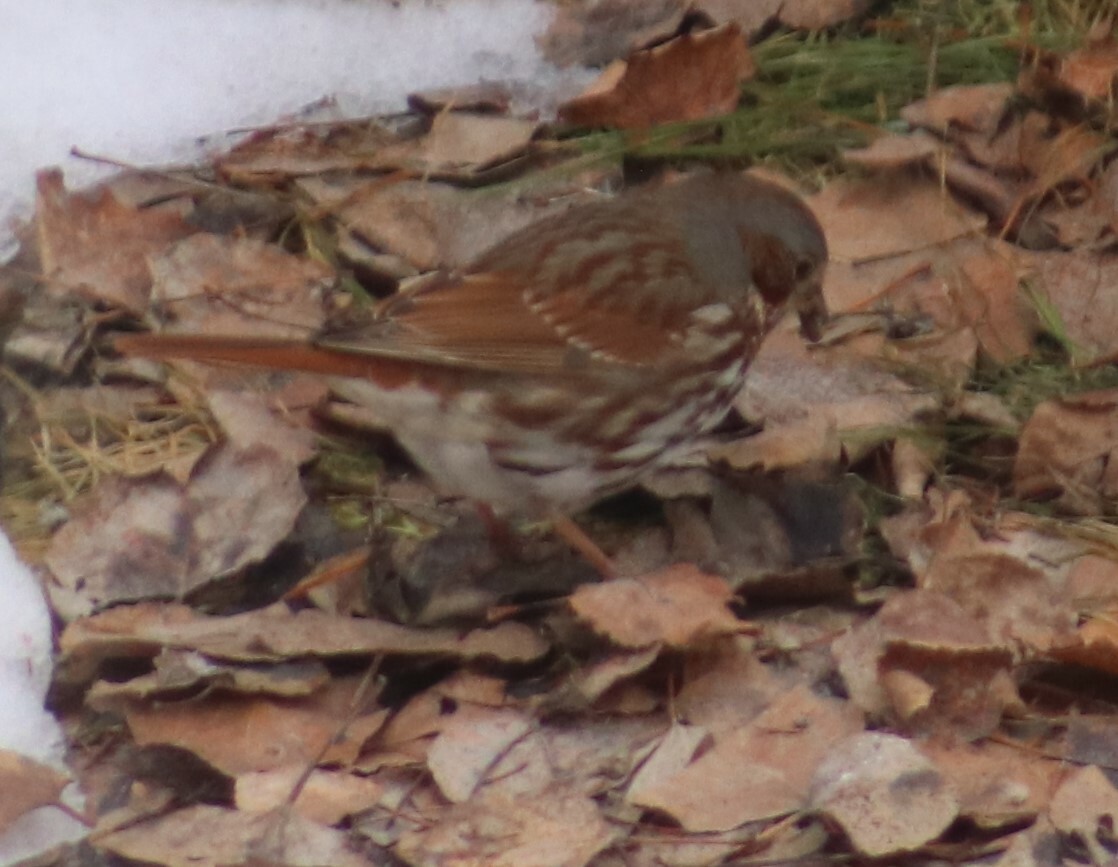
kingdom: Animalia
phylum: Chordata
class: Aves
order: Passeriformes
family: Passerellidae
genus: Passerella
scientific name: Passerella iliaca
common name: Fox sparrow
